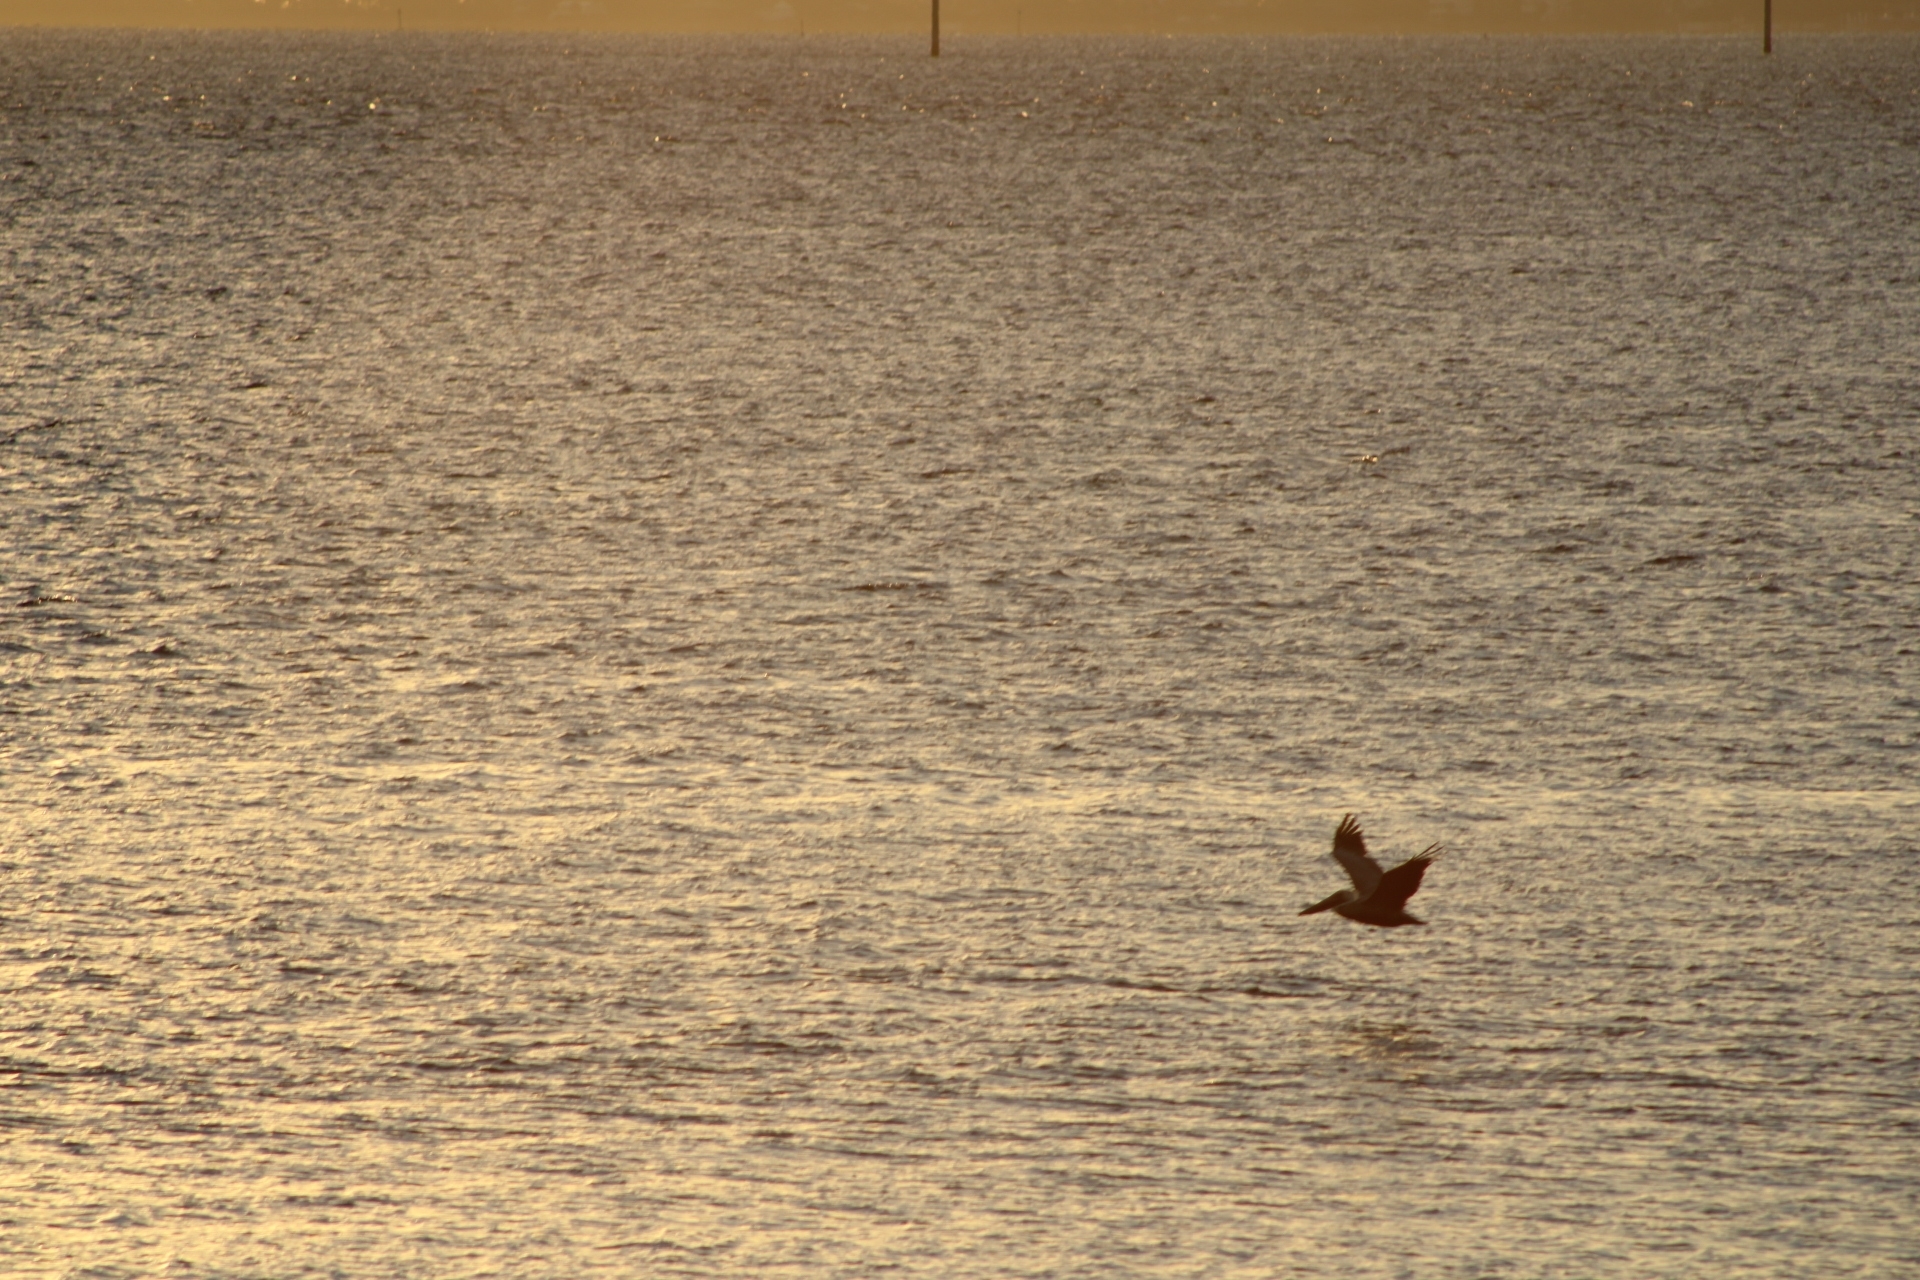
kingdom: Animalia
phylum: Chordata
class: Aves
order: Pelecaniformes
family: Pelecanidae
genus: Pelecanus
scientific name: Pelecanus occidentalis
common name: Brown pelican
